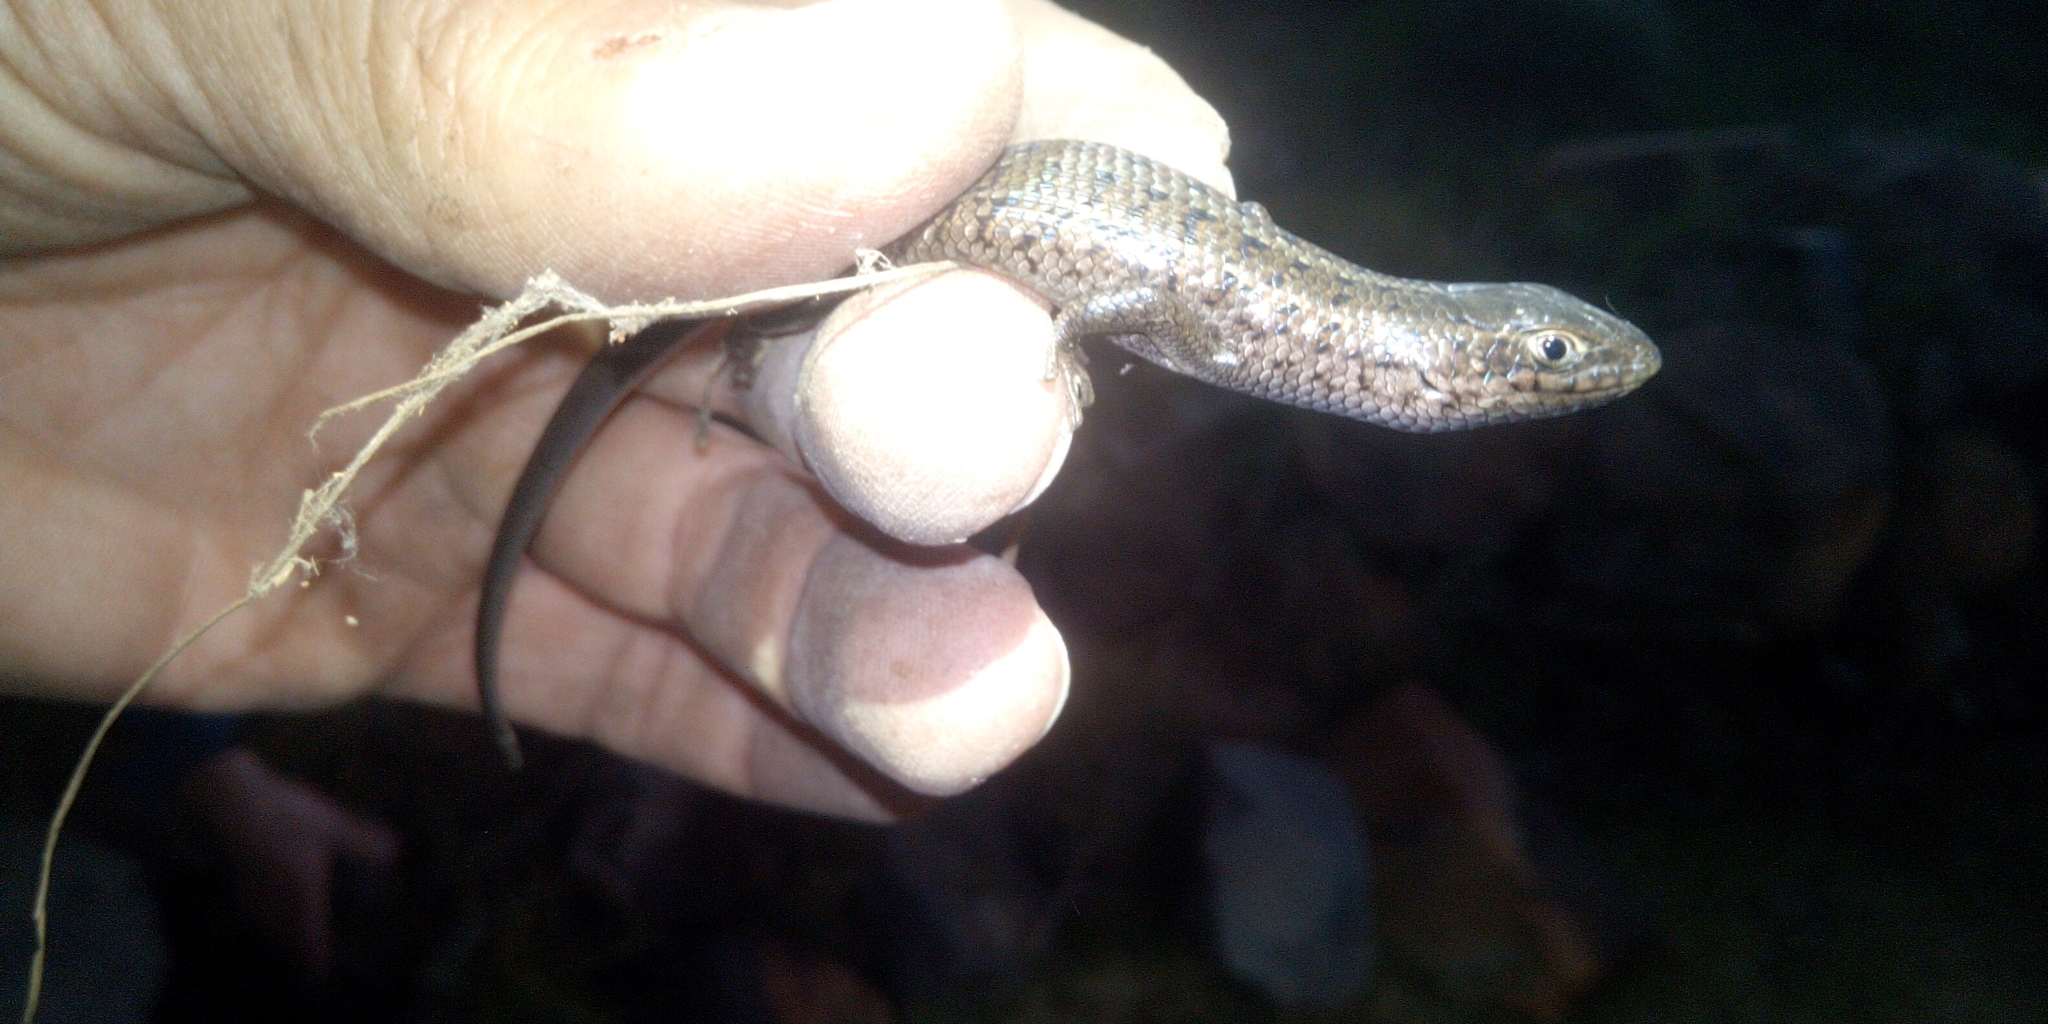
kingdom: Animalia
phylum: Chordata
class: Squamata
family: Scincidae
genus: Trachylepis
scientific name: Trachylepis capensis
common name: Cape skink
